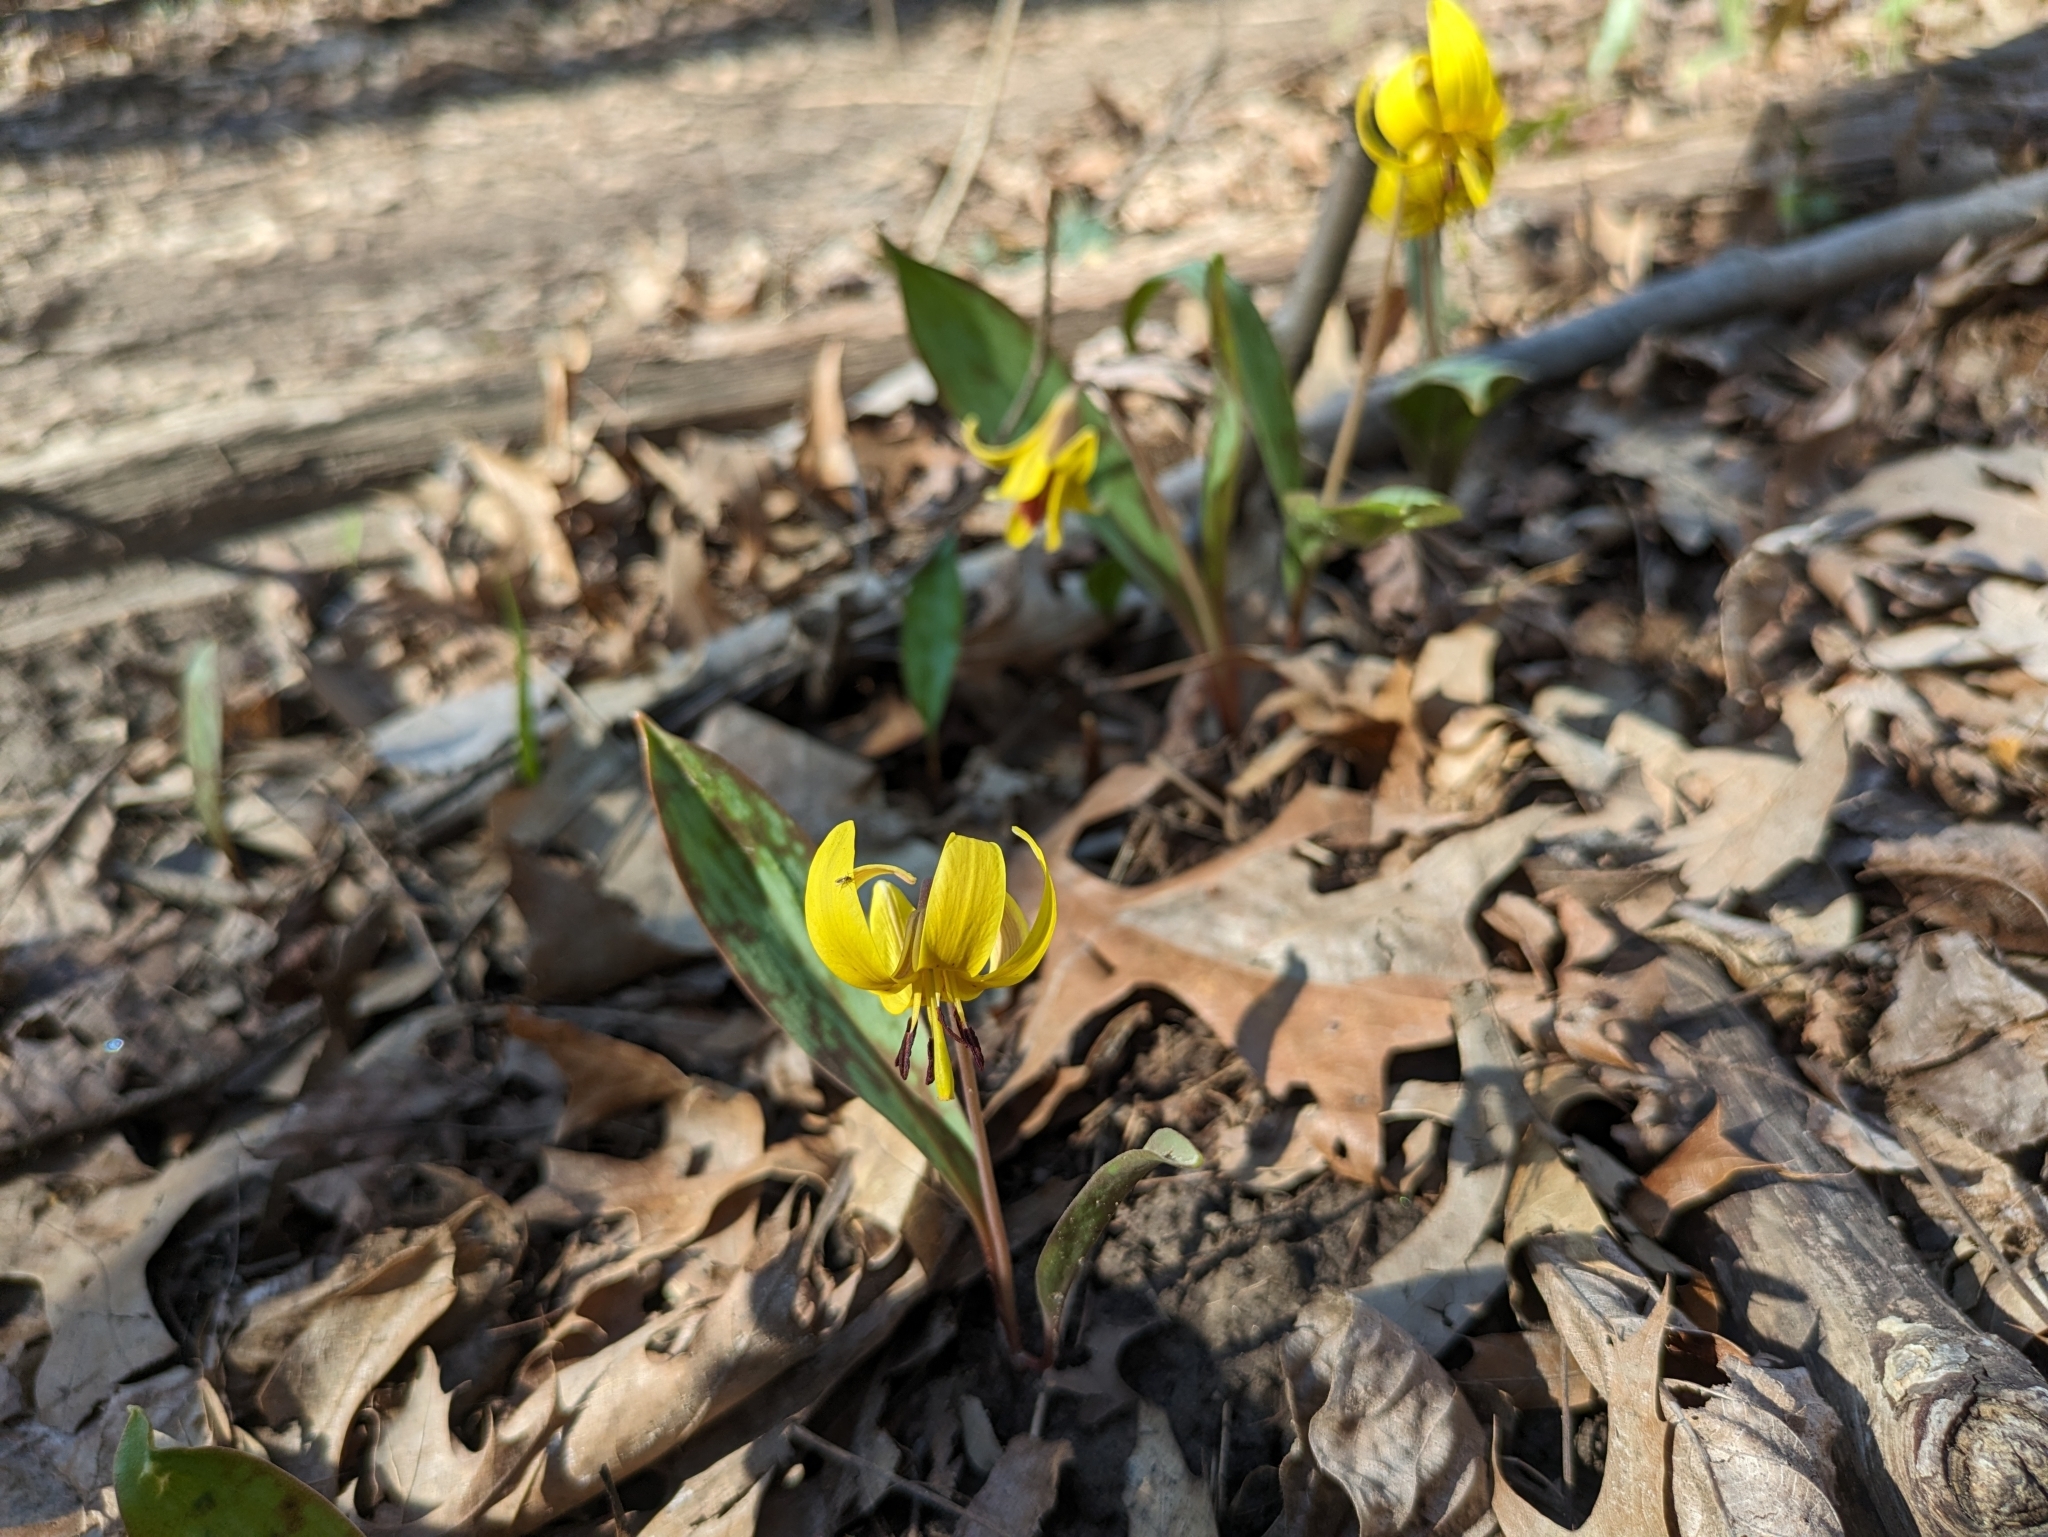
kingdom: Plantae
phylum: Tracheophyta
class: Liliopsida
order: Liliales
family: Liliaceae
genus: Erythronium
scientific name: Erythronium americanum
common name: Yellow adder's-tongue
